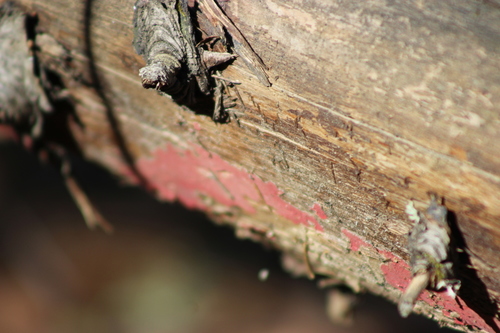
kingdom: Fungi
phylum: Basidiomycota
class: Agaricomycetes
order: Hymenochaetales
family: Hymenochaetaceae
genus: Hymenochaete
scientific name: Hymenochaete cruenta
